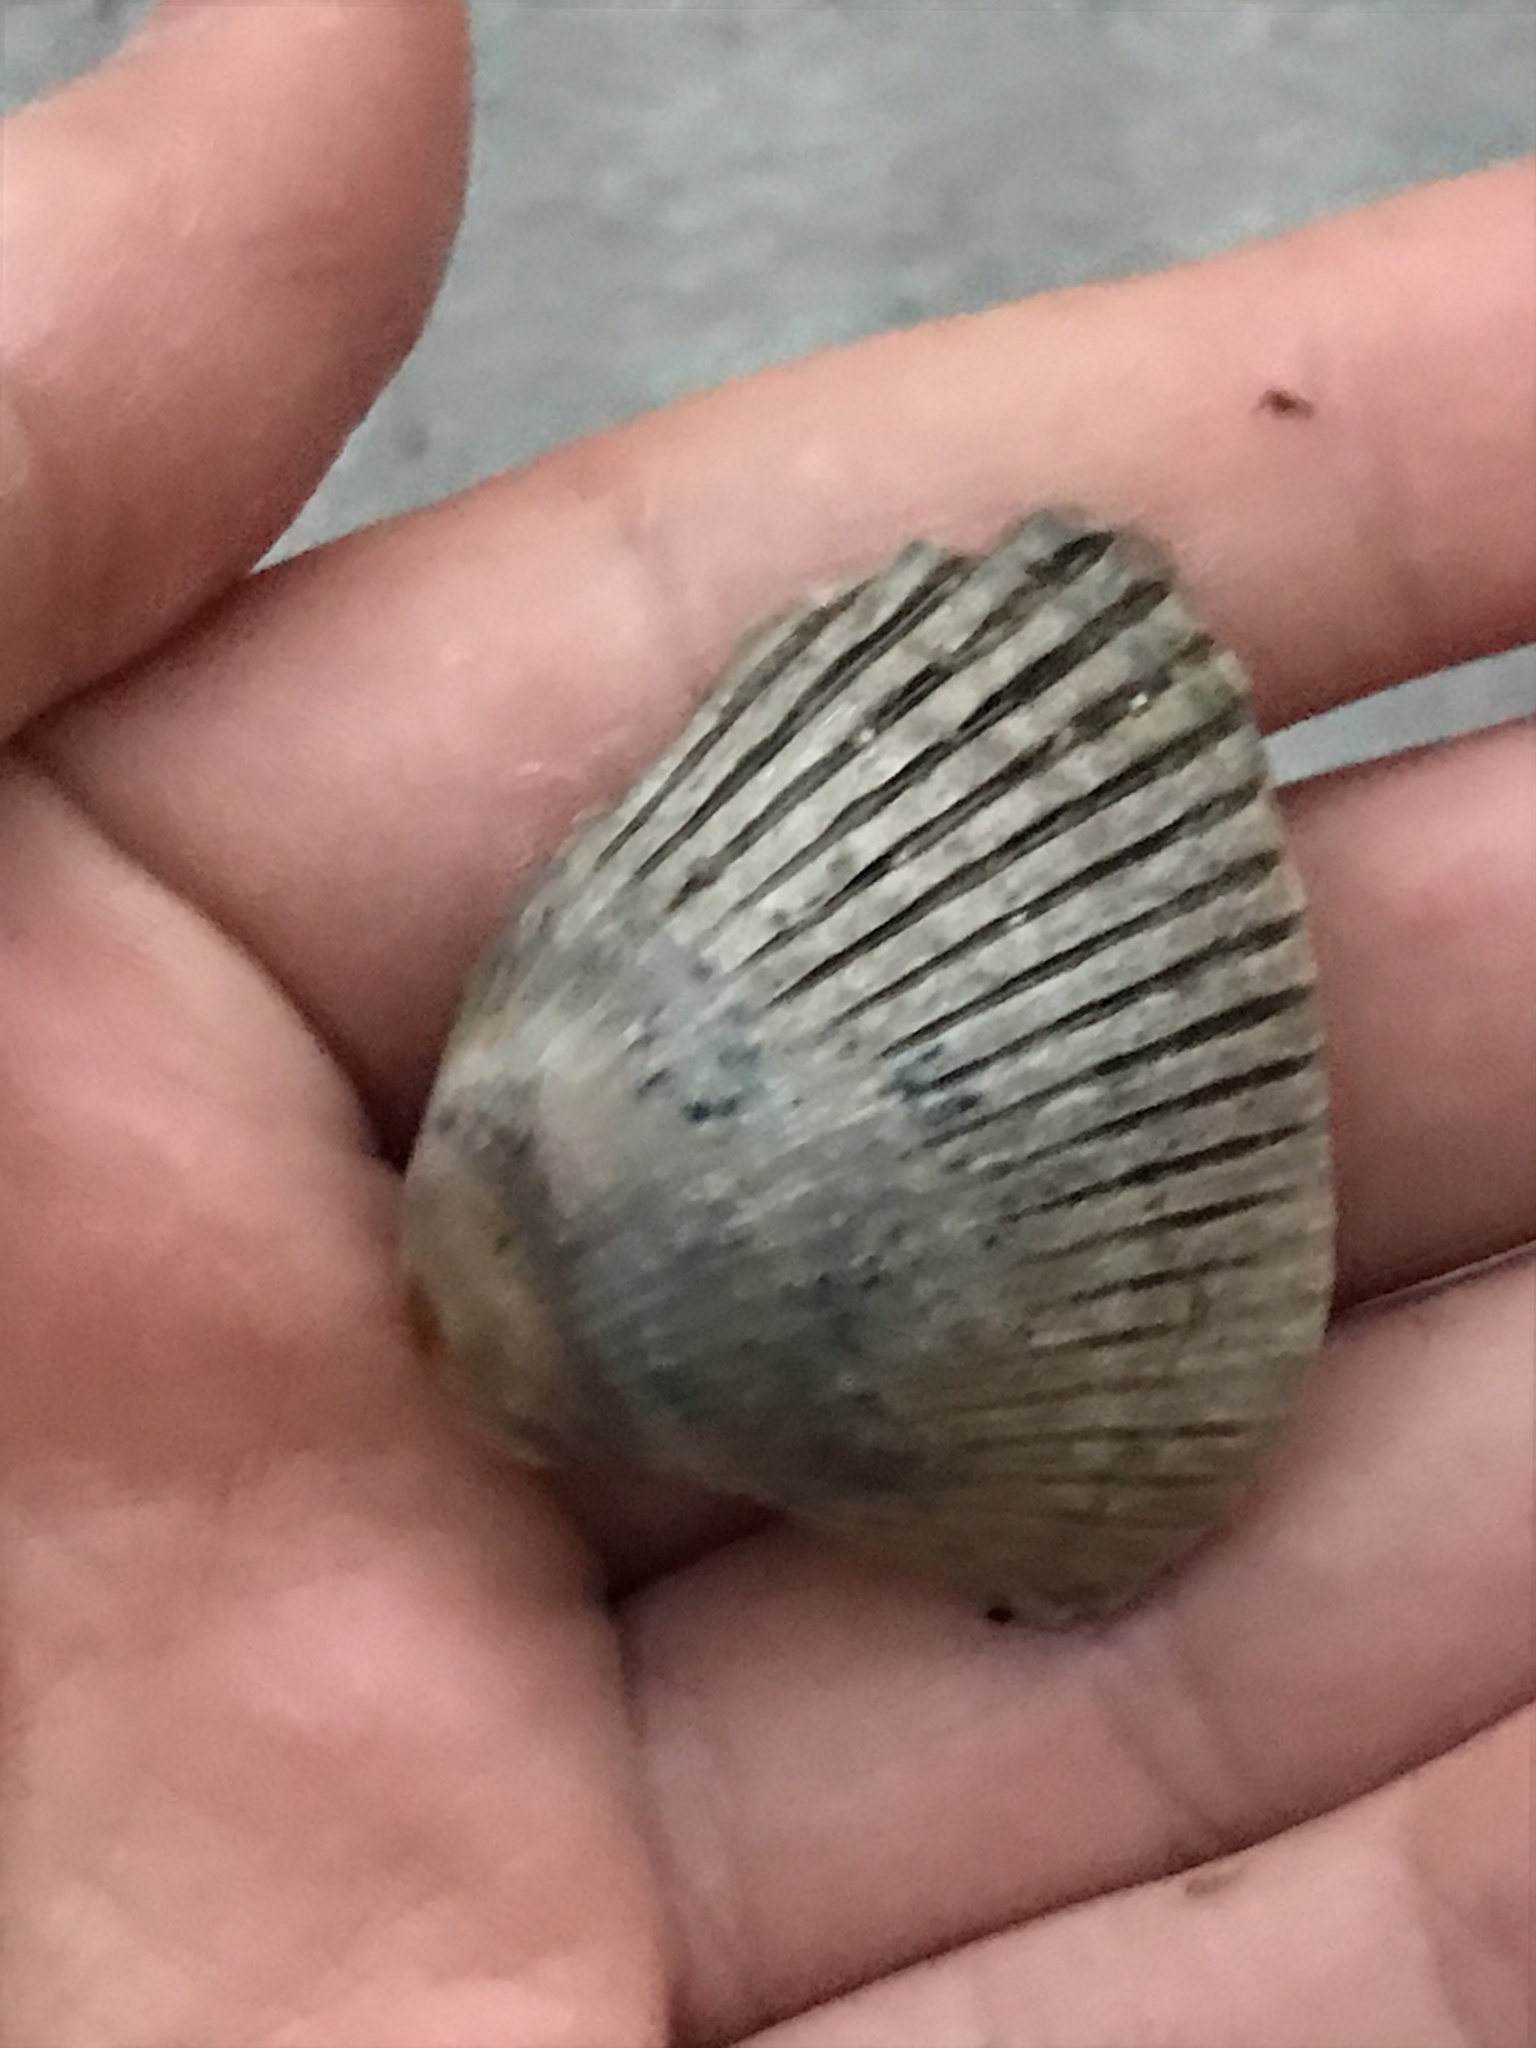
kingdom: Animalia
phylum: Mollusca
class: Bivalvia
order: Cardiida
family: Cardiidae
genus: Clinocardium
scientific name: Clinocardium nuttallii
